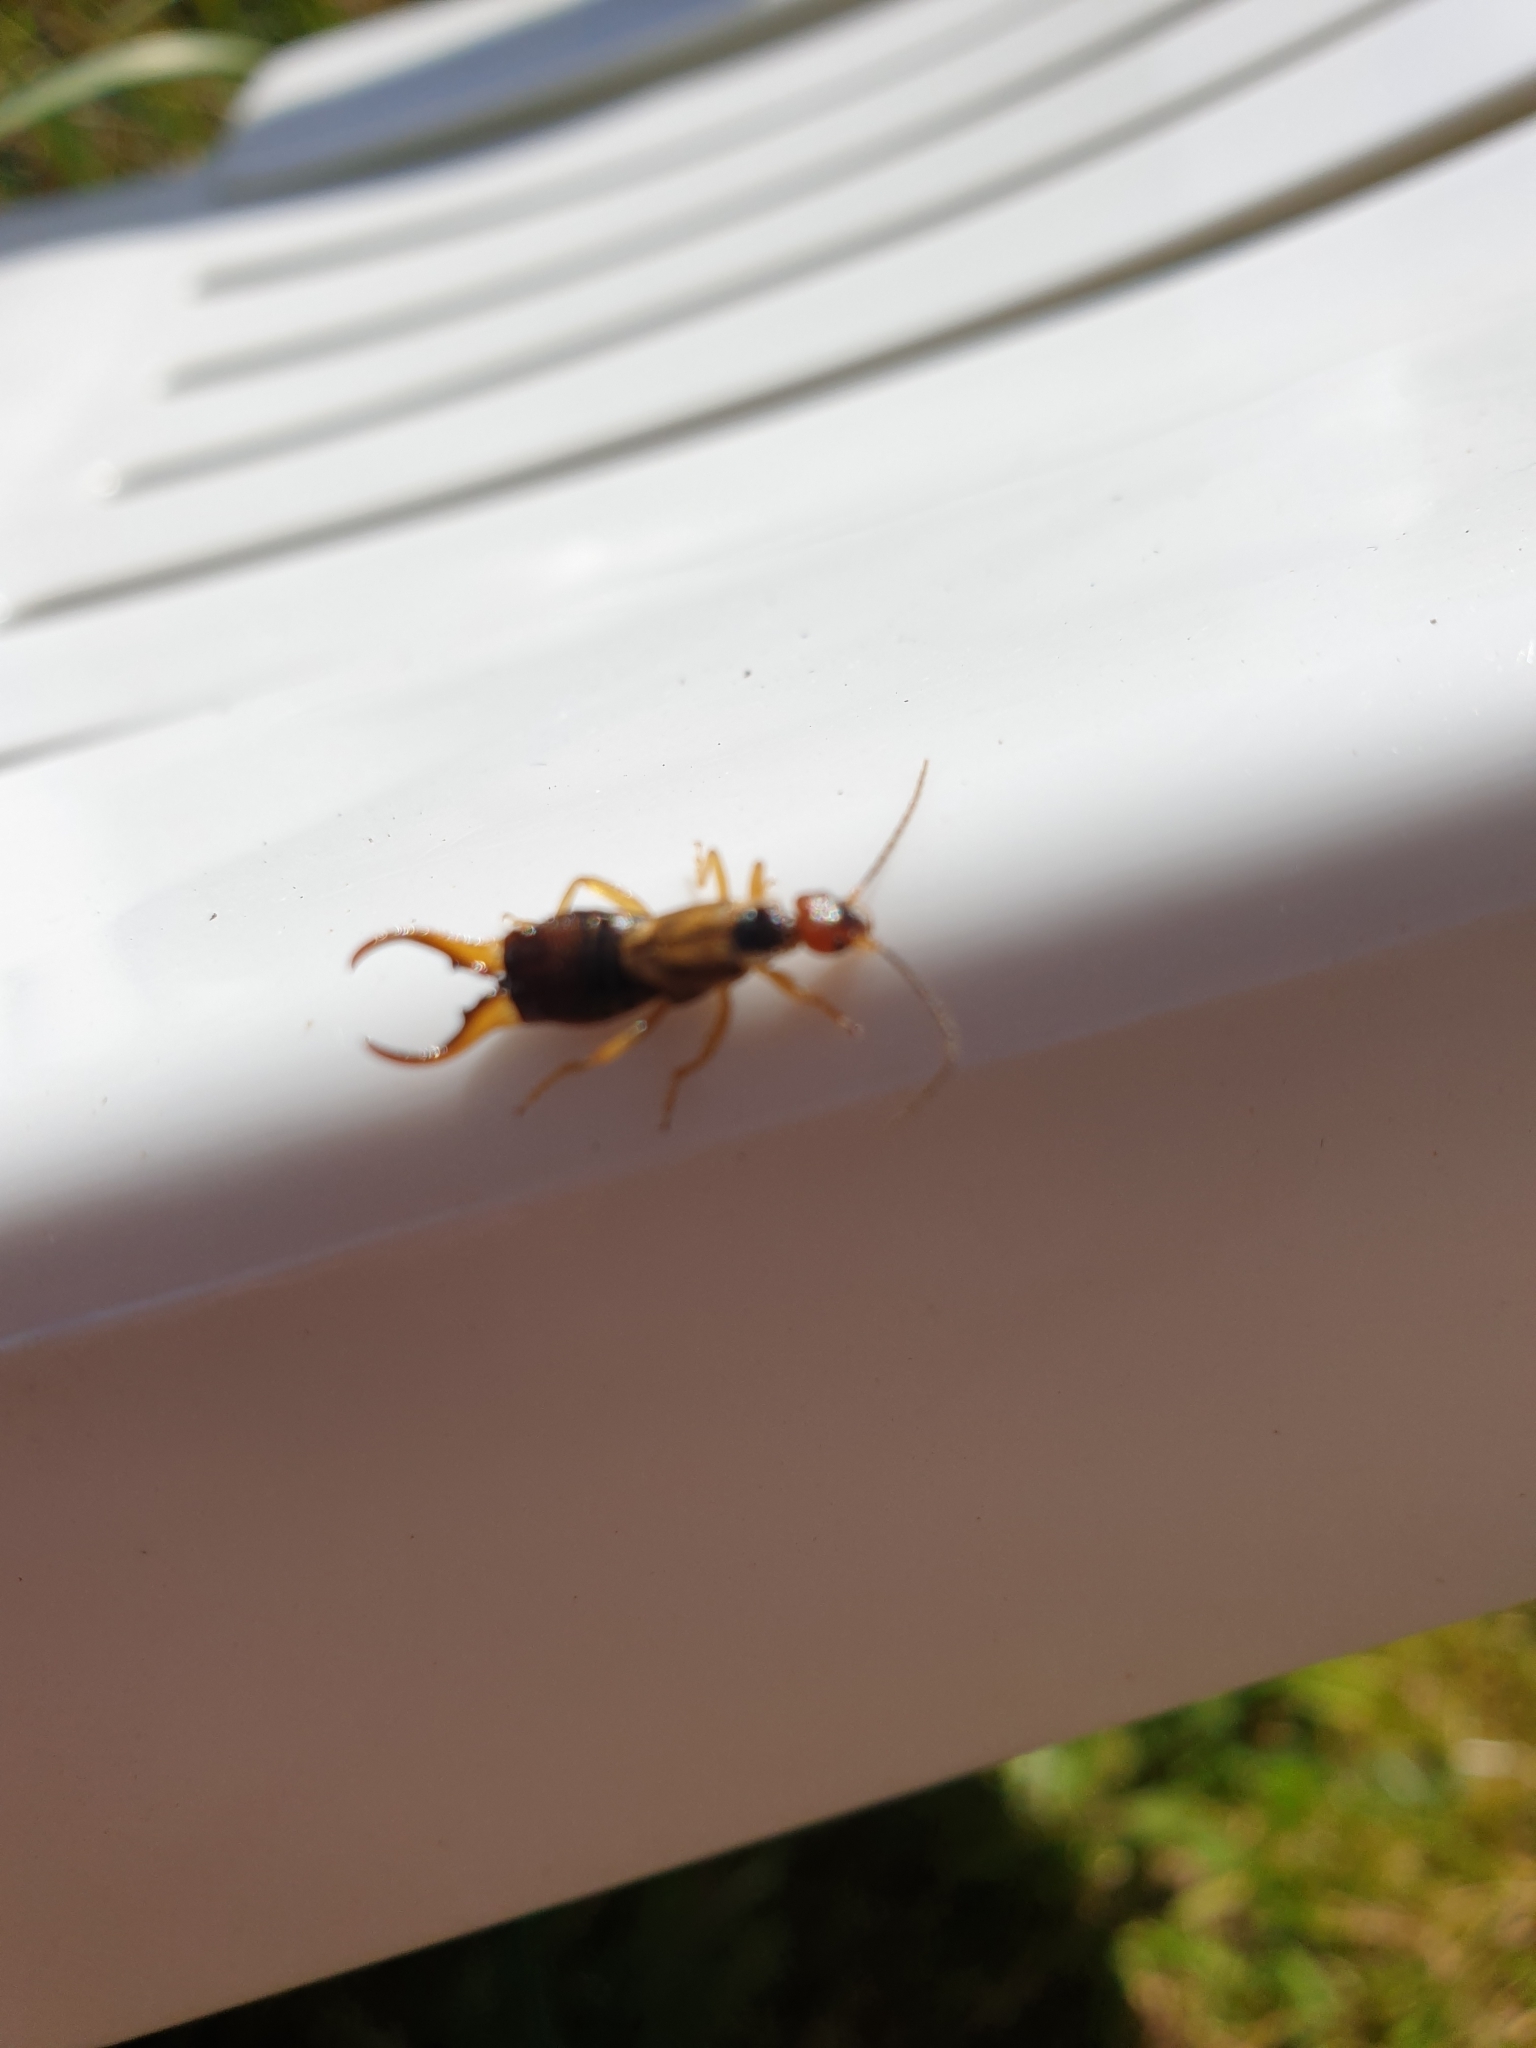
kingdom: Animalia
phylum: Arthropoda
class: Insecta
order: Dermaptera
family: Forficulidae
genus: Forficula
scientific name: Forficula
